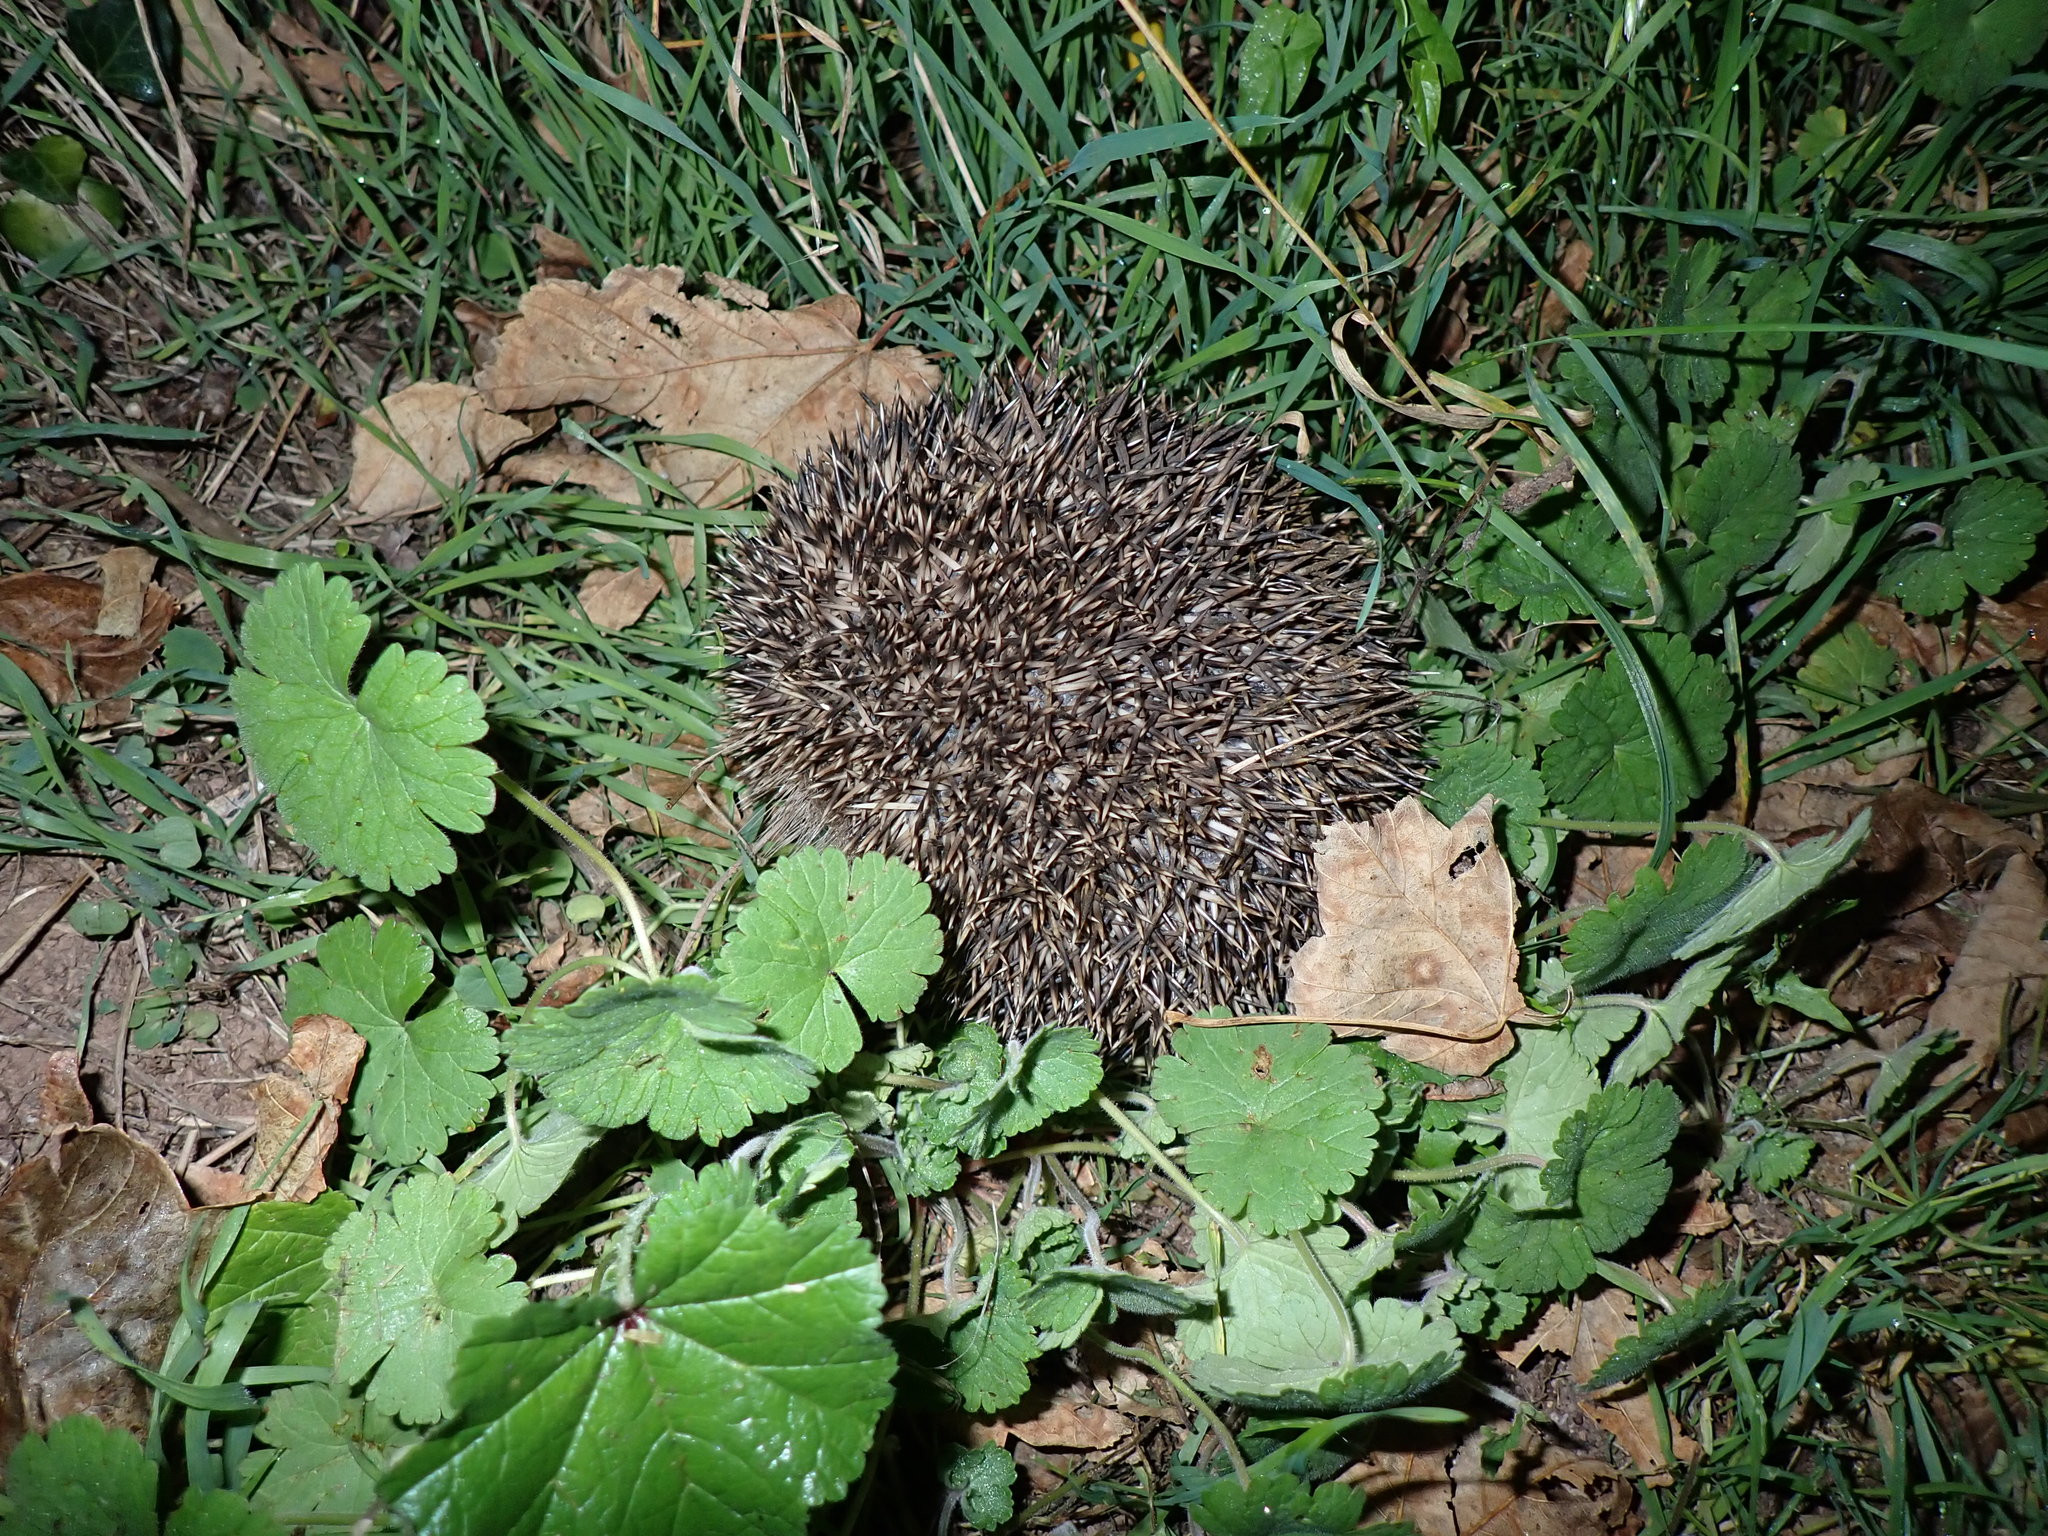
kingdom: Animalia
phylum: Chordata
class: Mammalia
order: Erinaceomorpha
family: Erinaceidae
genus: Erinaceus
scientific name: Erinaceus europaeus
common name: West european hedgehog
